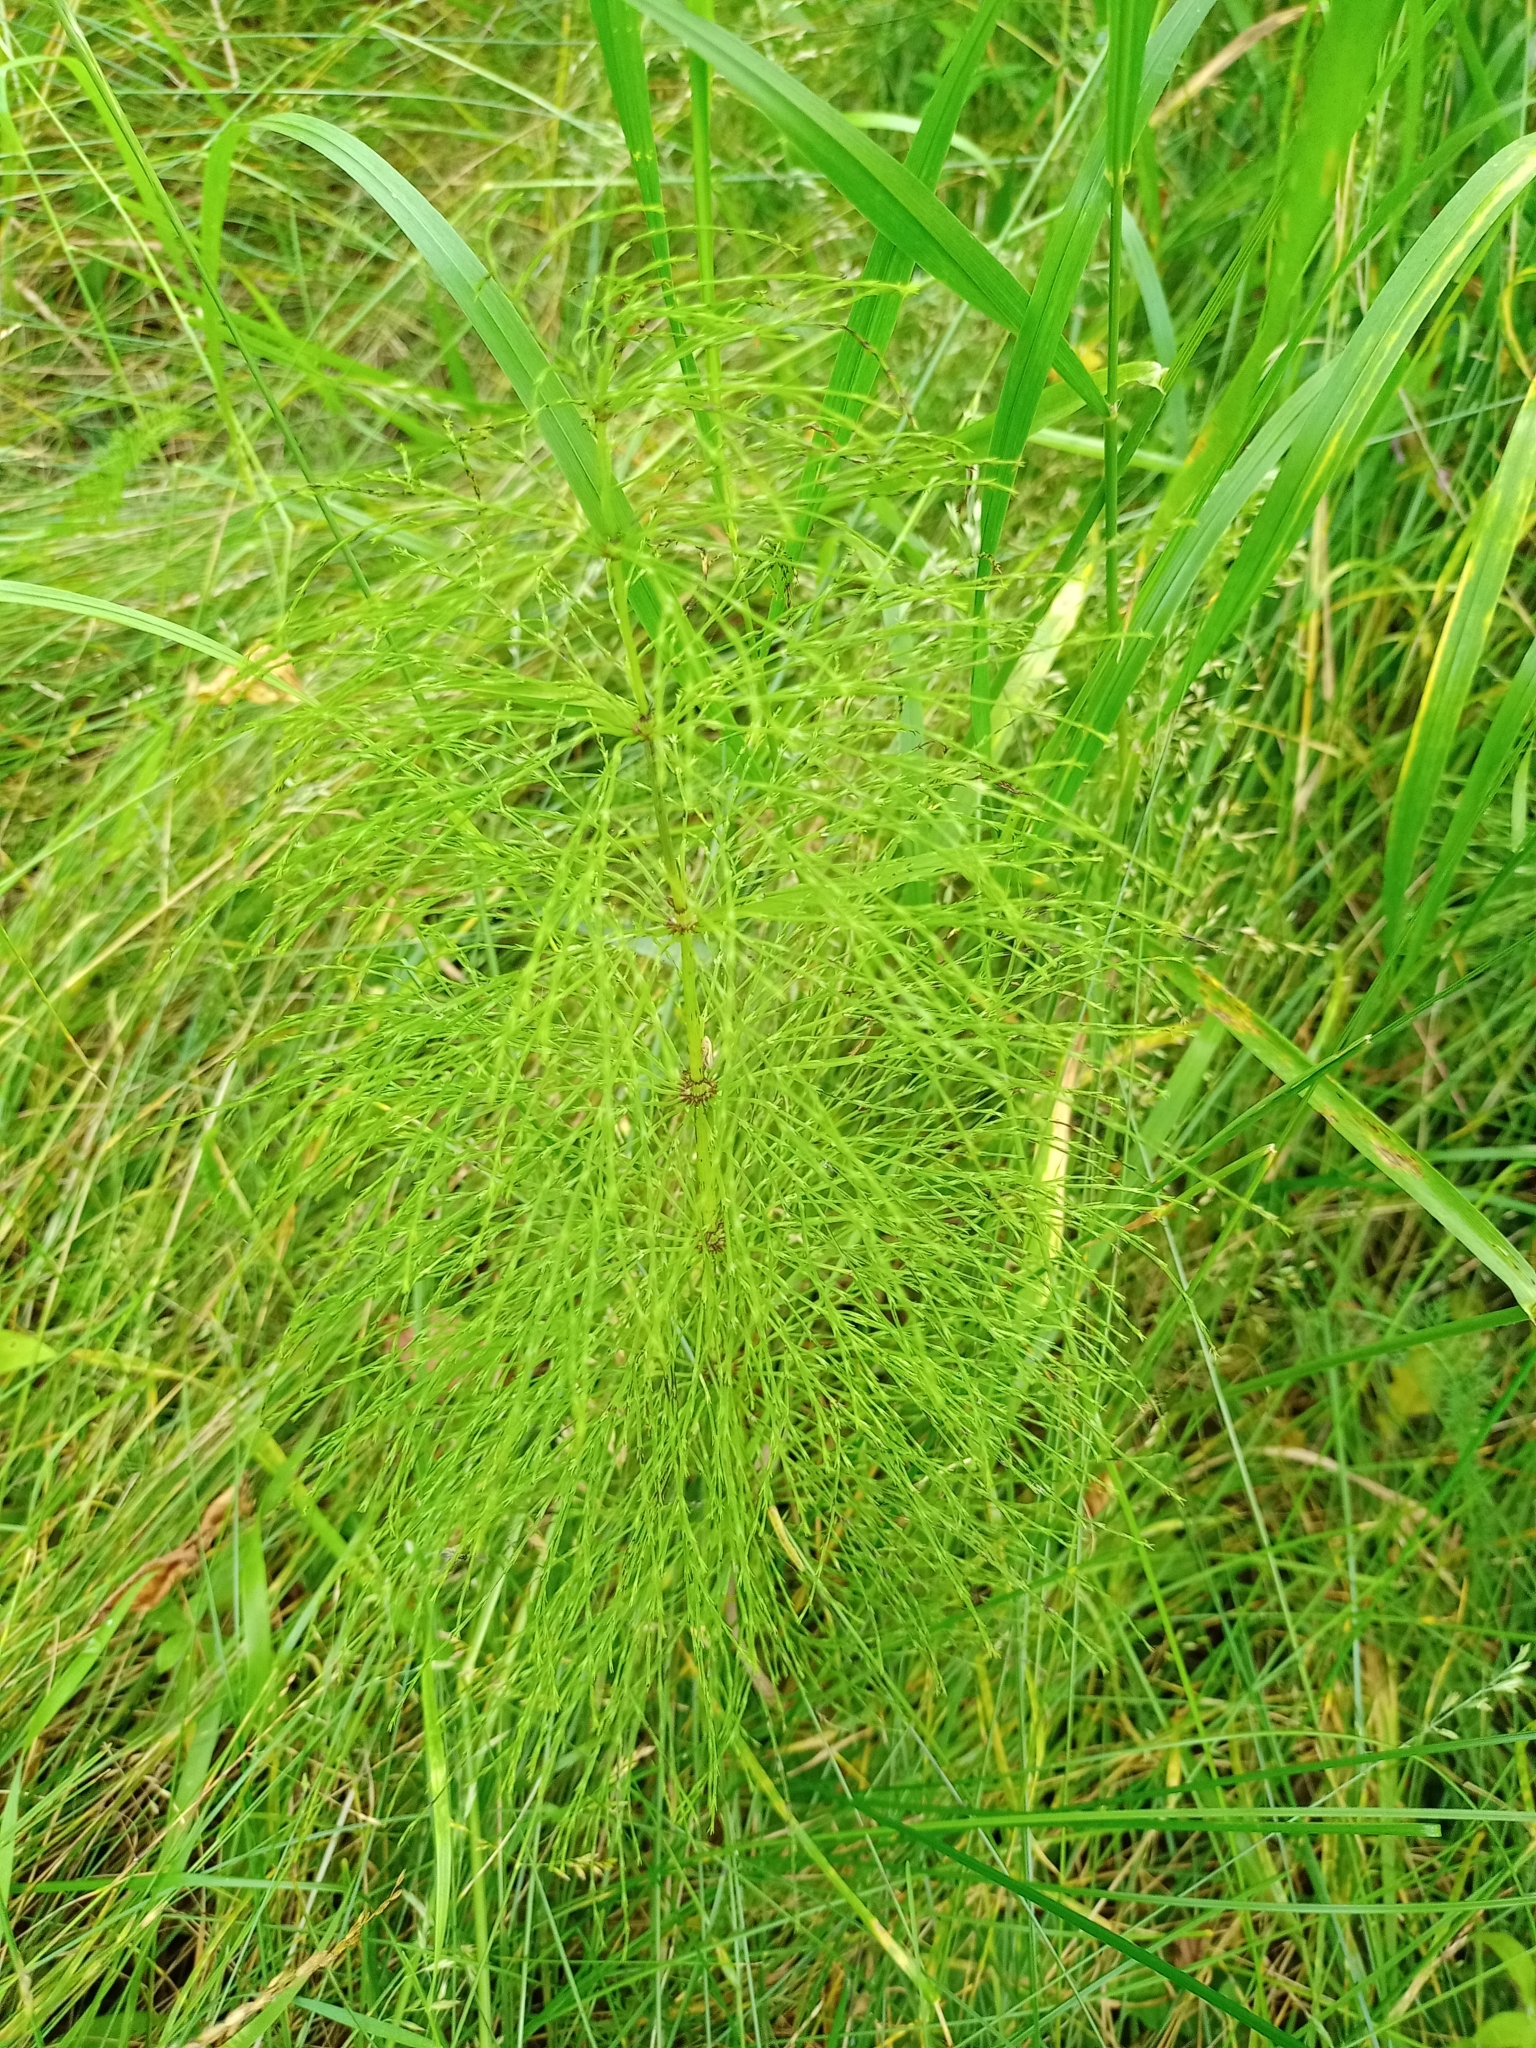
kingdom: Plantae
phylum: Tracheophyta
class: Polypodiopsida
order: Equisetales
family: Equisetaceae
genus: Equisetum
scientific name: Equisetum sylvaticum
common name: Wood horsetail
